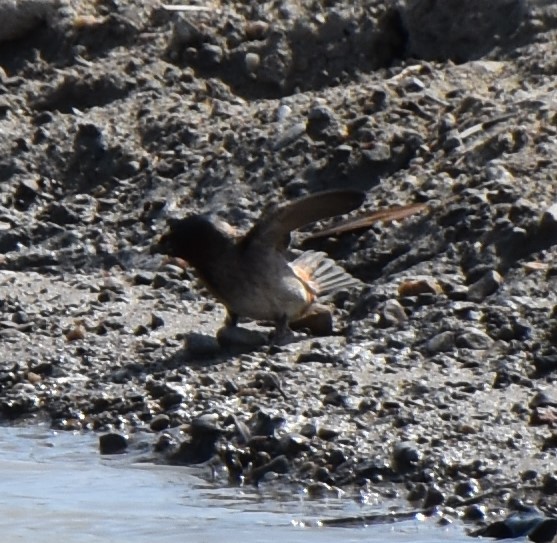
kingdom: Animalia
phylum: Chordata
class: Aves
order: Passeriformes
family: Hirundinidae
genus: Petrochelidon
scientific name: Petrochelidon pyrrhonota
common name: American cliff swallow
